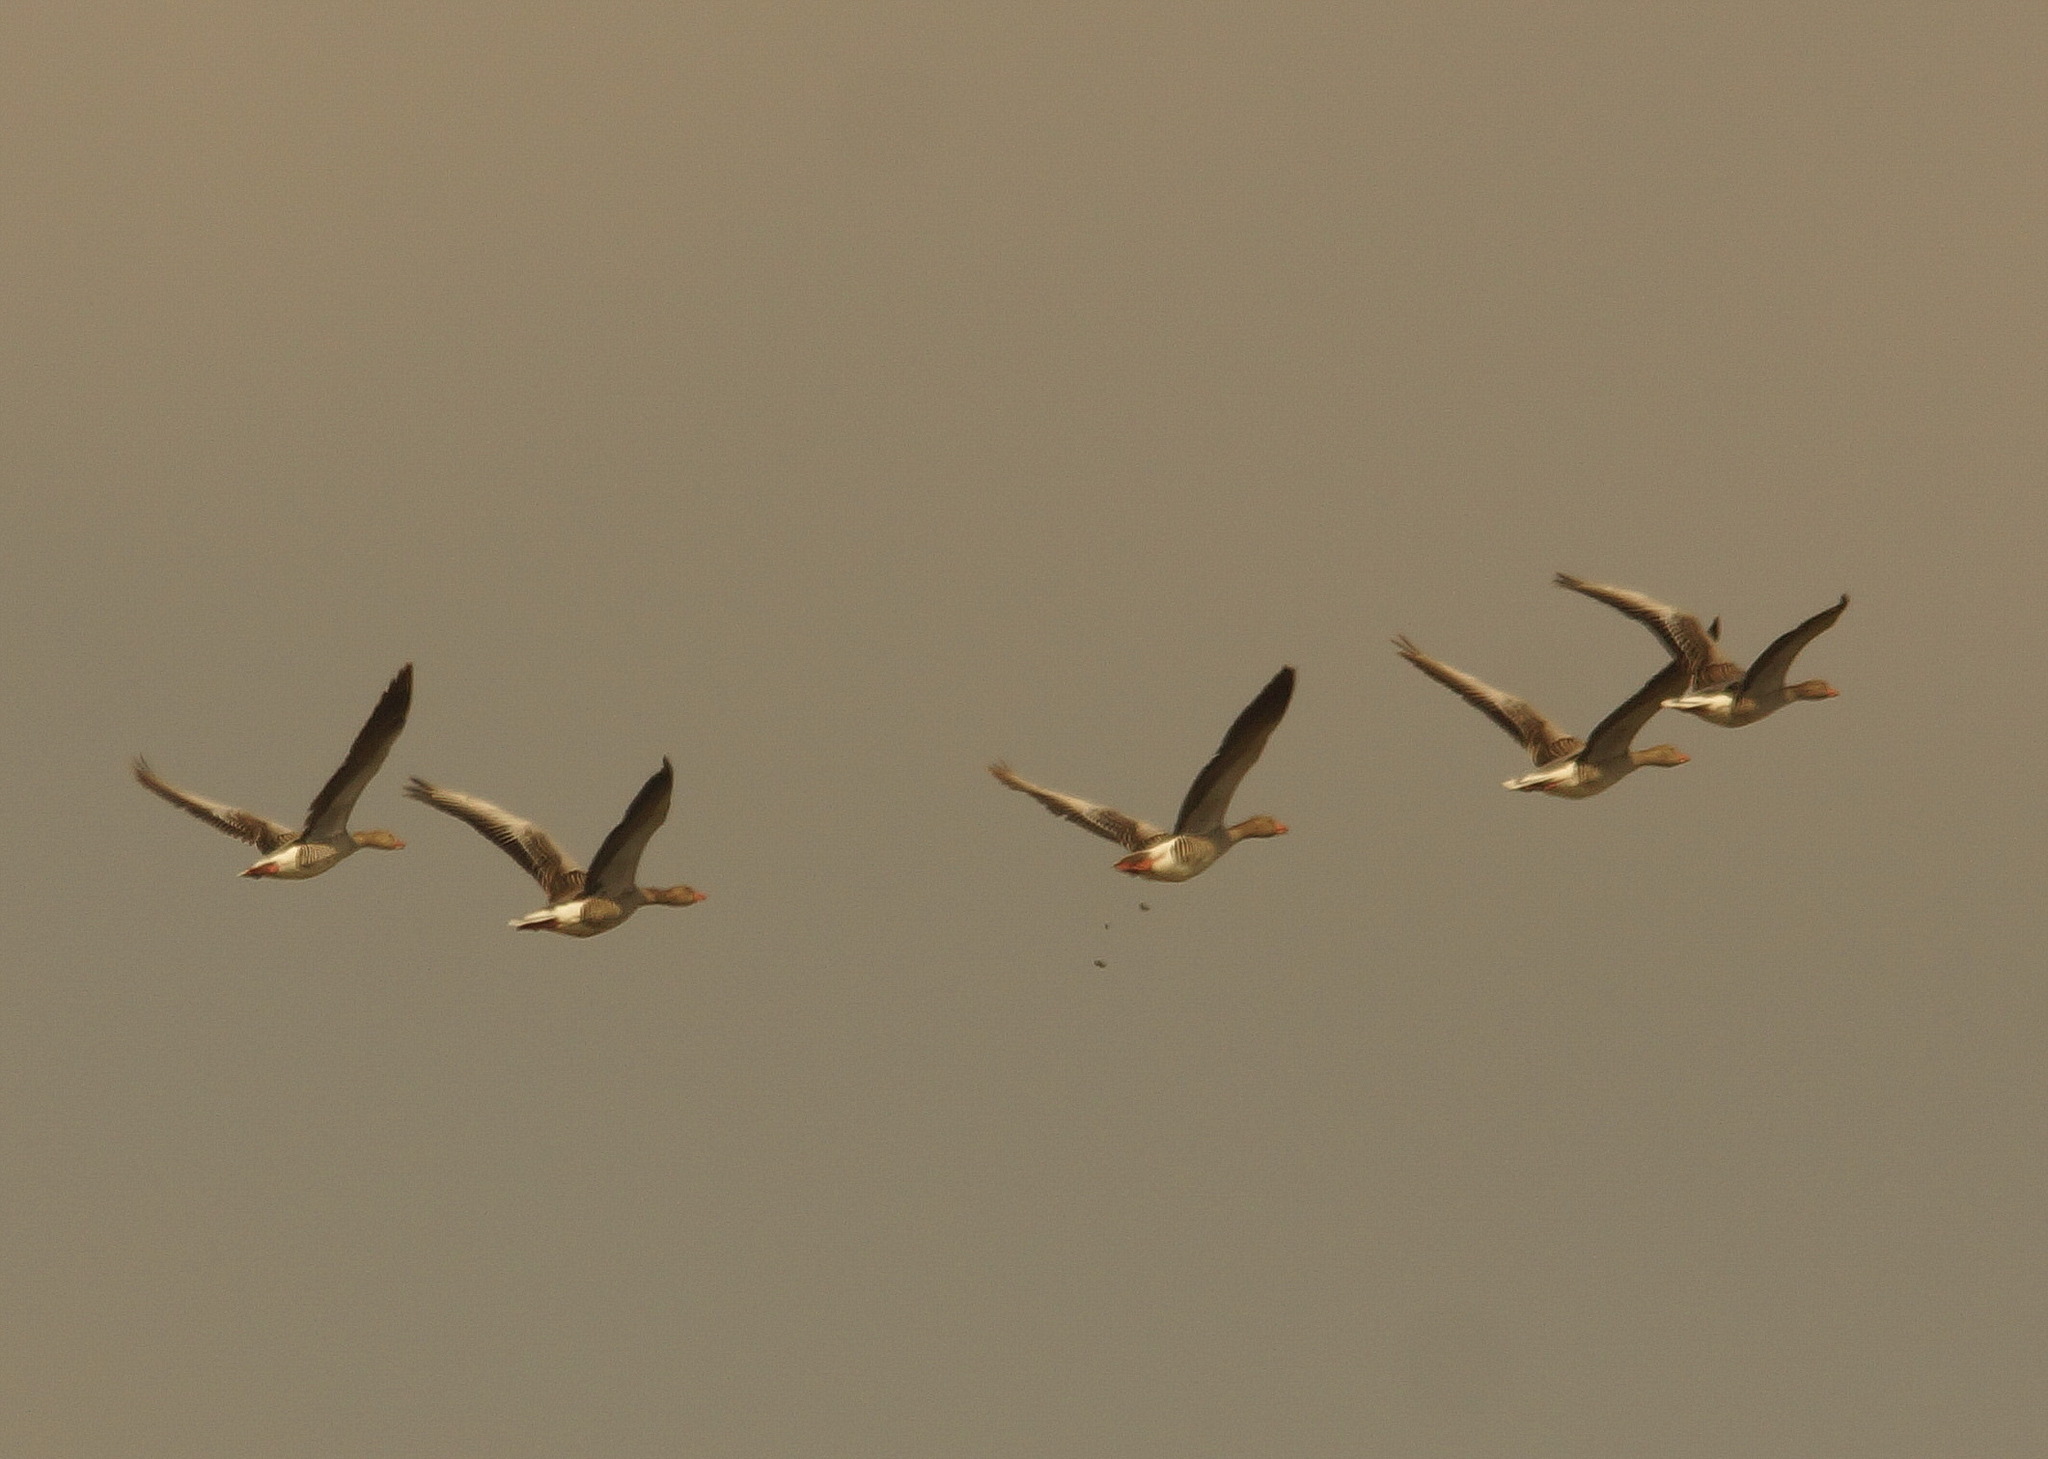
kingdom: Animalia
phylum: Chordata
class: Aves
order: Anseriformes
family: Anatidae
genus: Anser
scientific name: Anser anser
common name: Greylag goose
